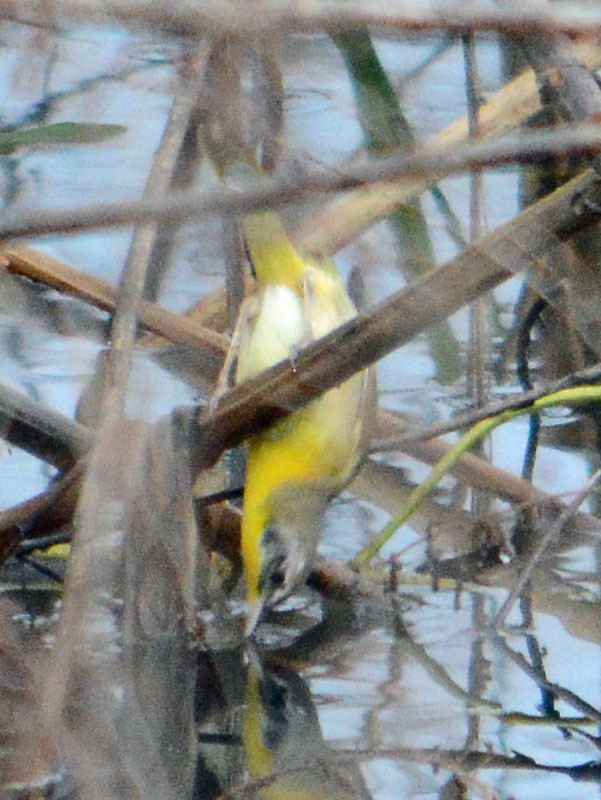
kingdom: Animalia
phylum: Chordata
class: Aves
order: Passeriformes
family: Parulidae
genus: Geothlypis
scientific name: Geothlypis trichas
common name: Common yellowthroat
